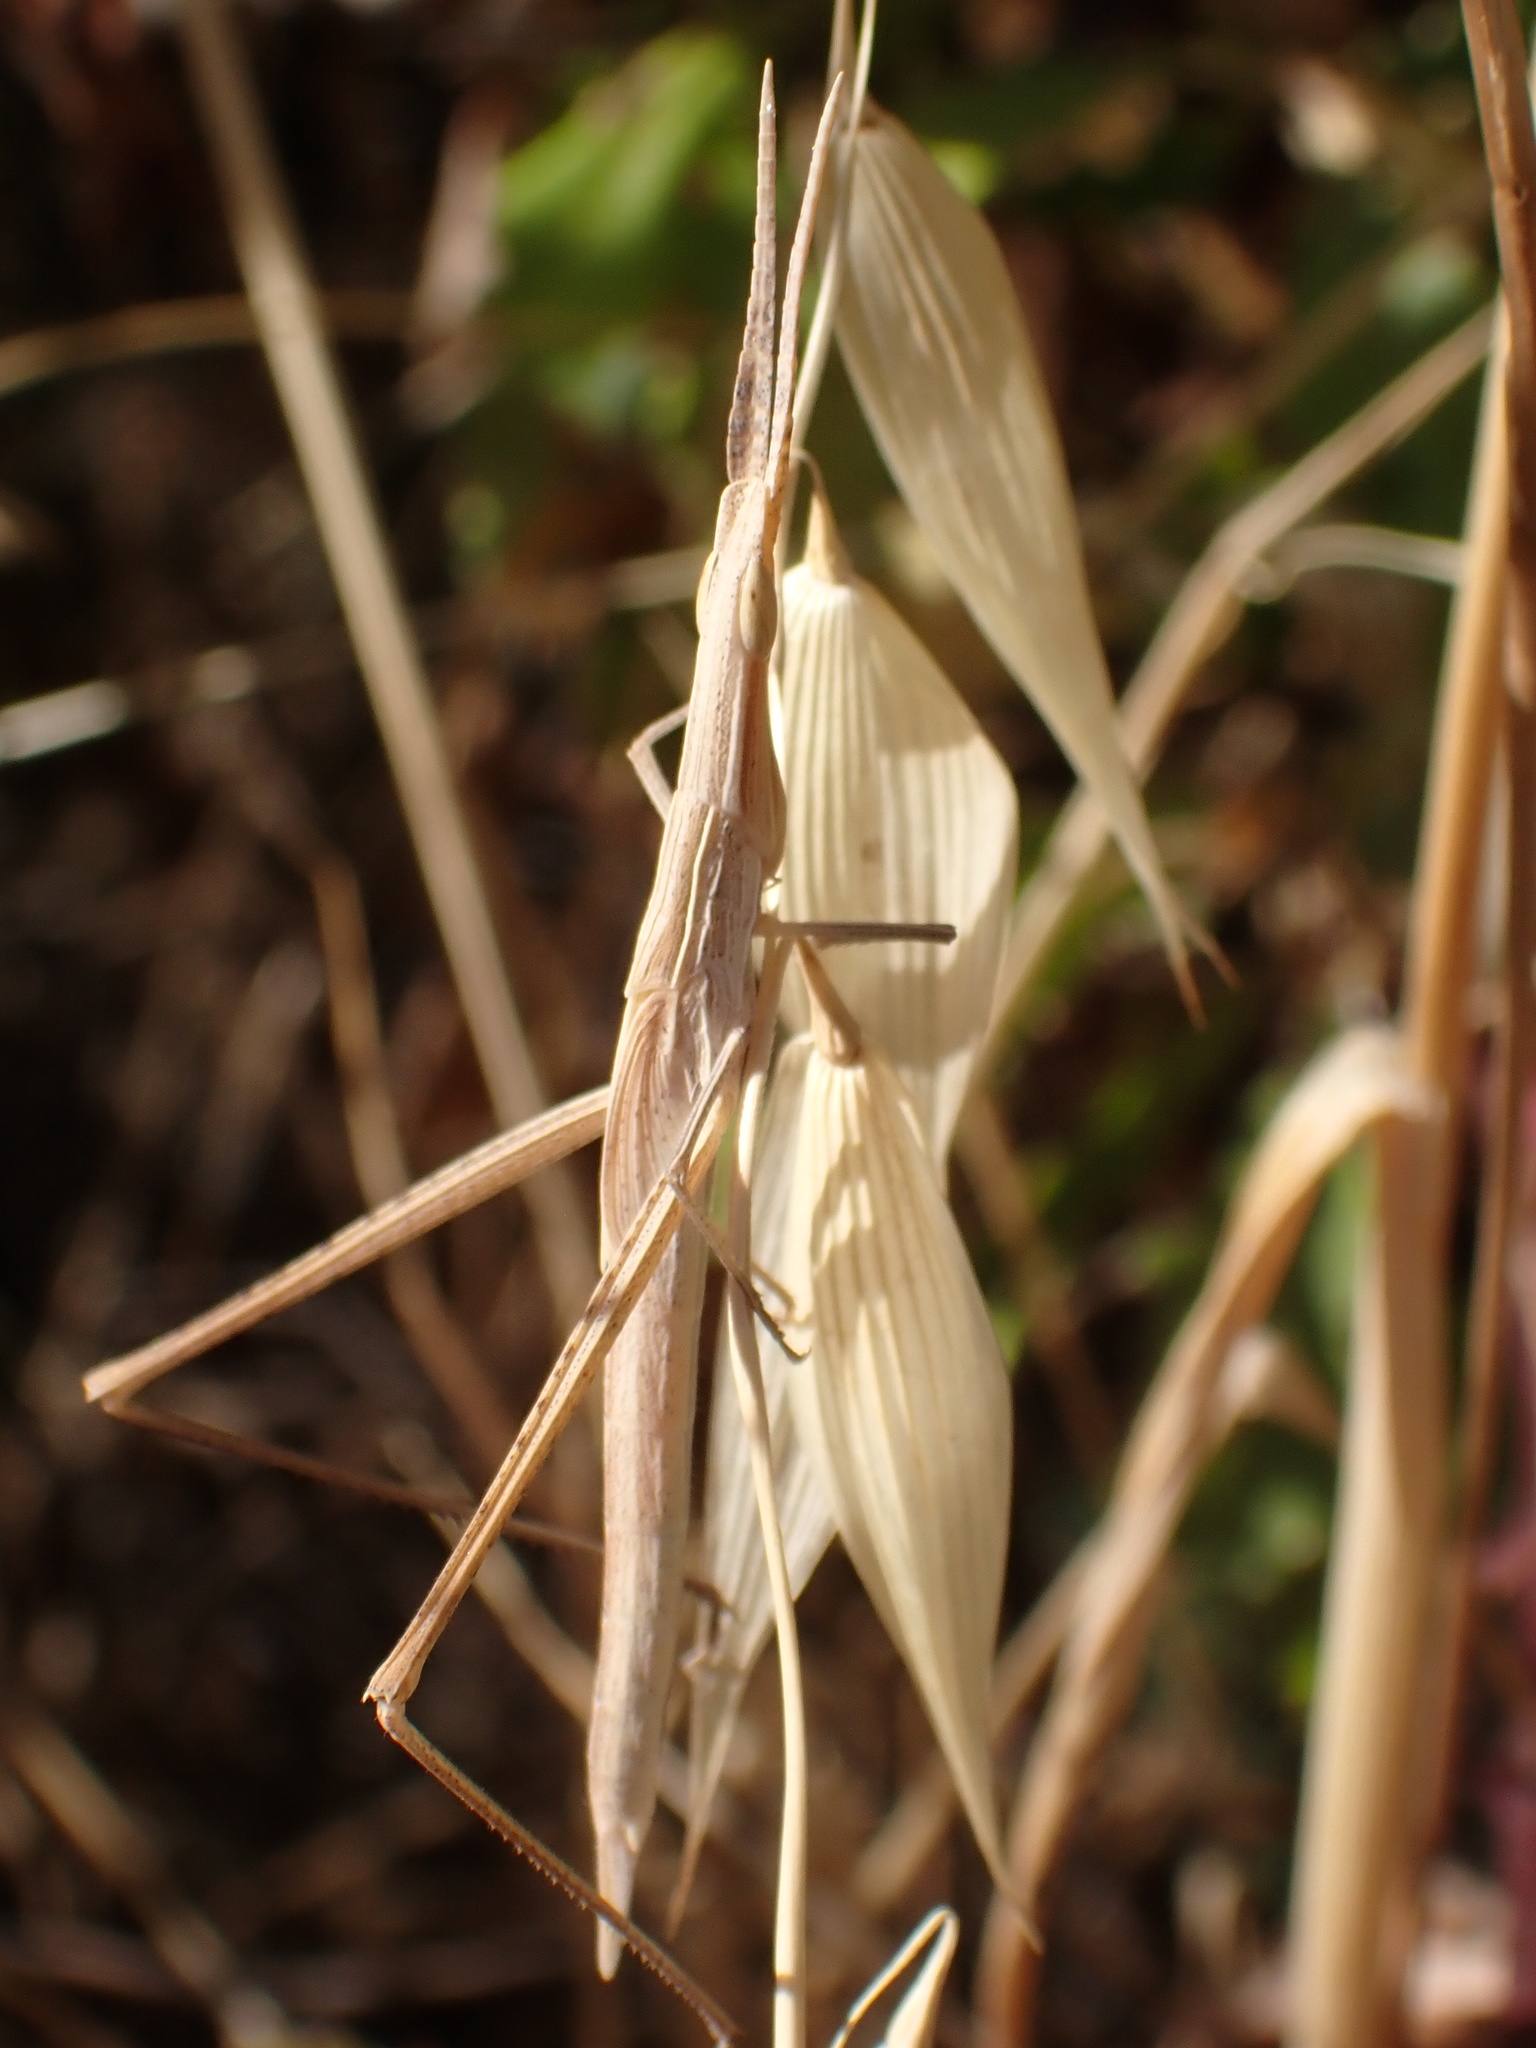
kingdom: Animalia
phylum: Arthropoda
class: Insecta
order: Orthoptera
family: Acrididae
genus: Acrida
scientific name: Acrida ungarica
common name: Common cone-headed grasshopper
